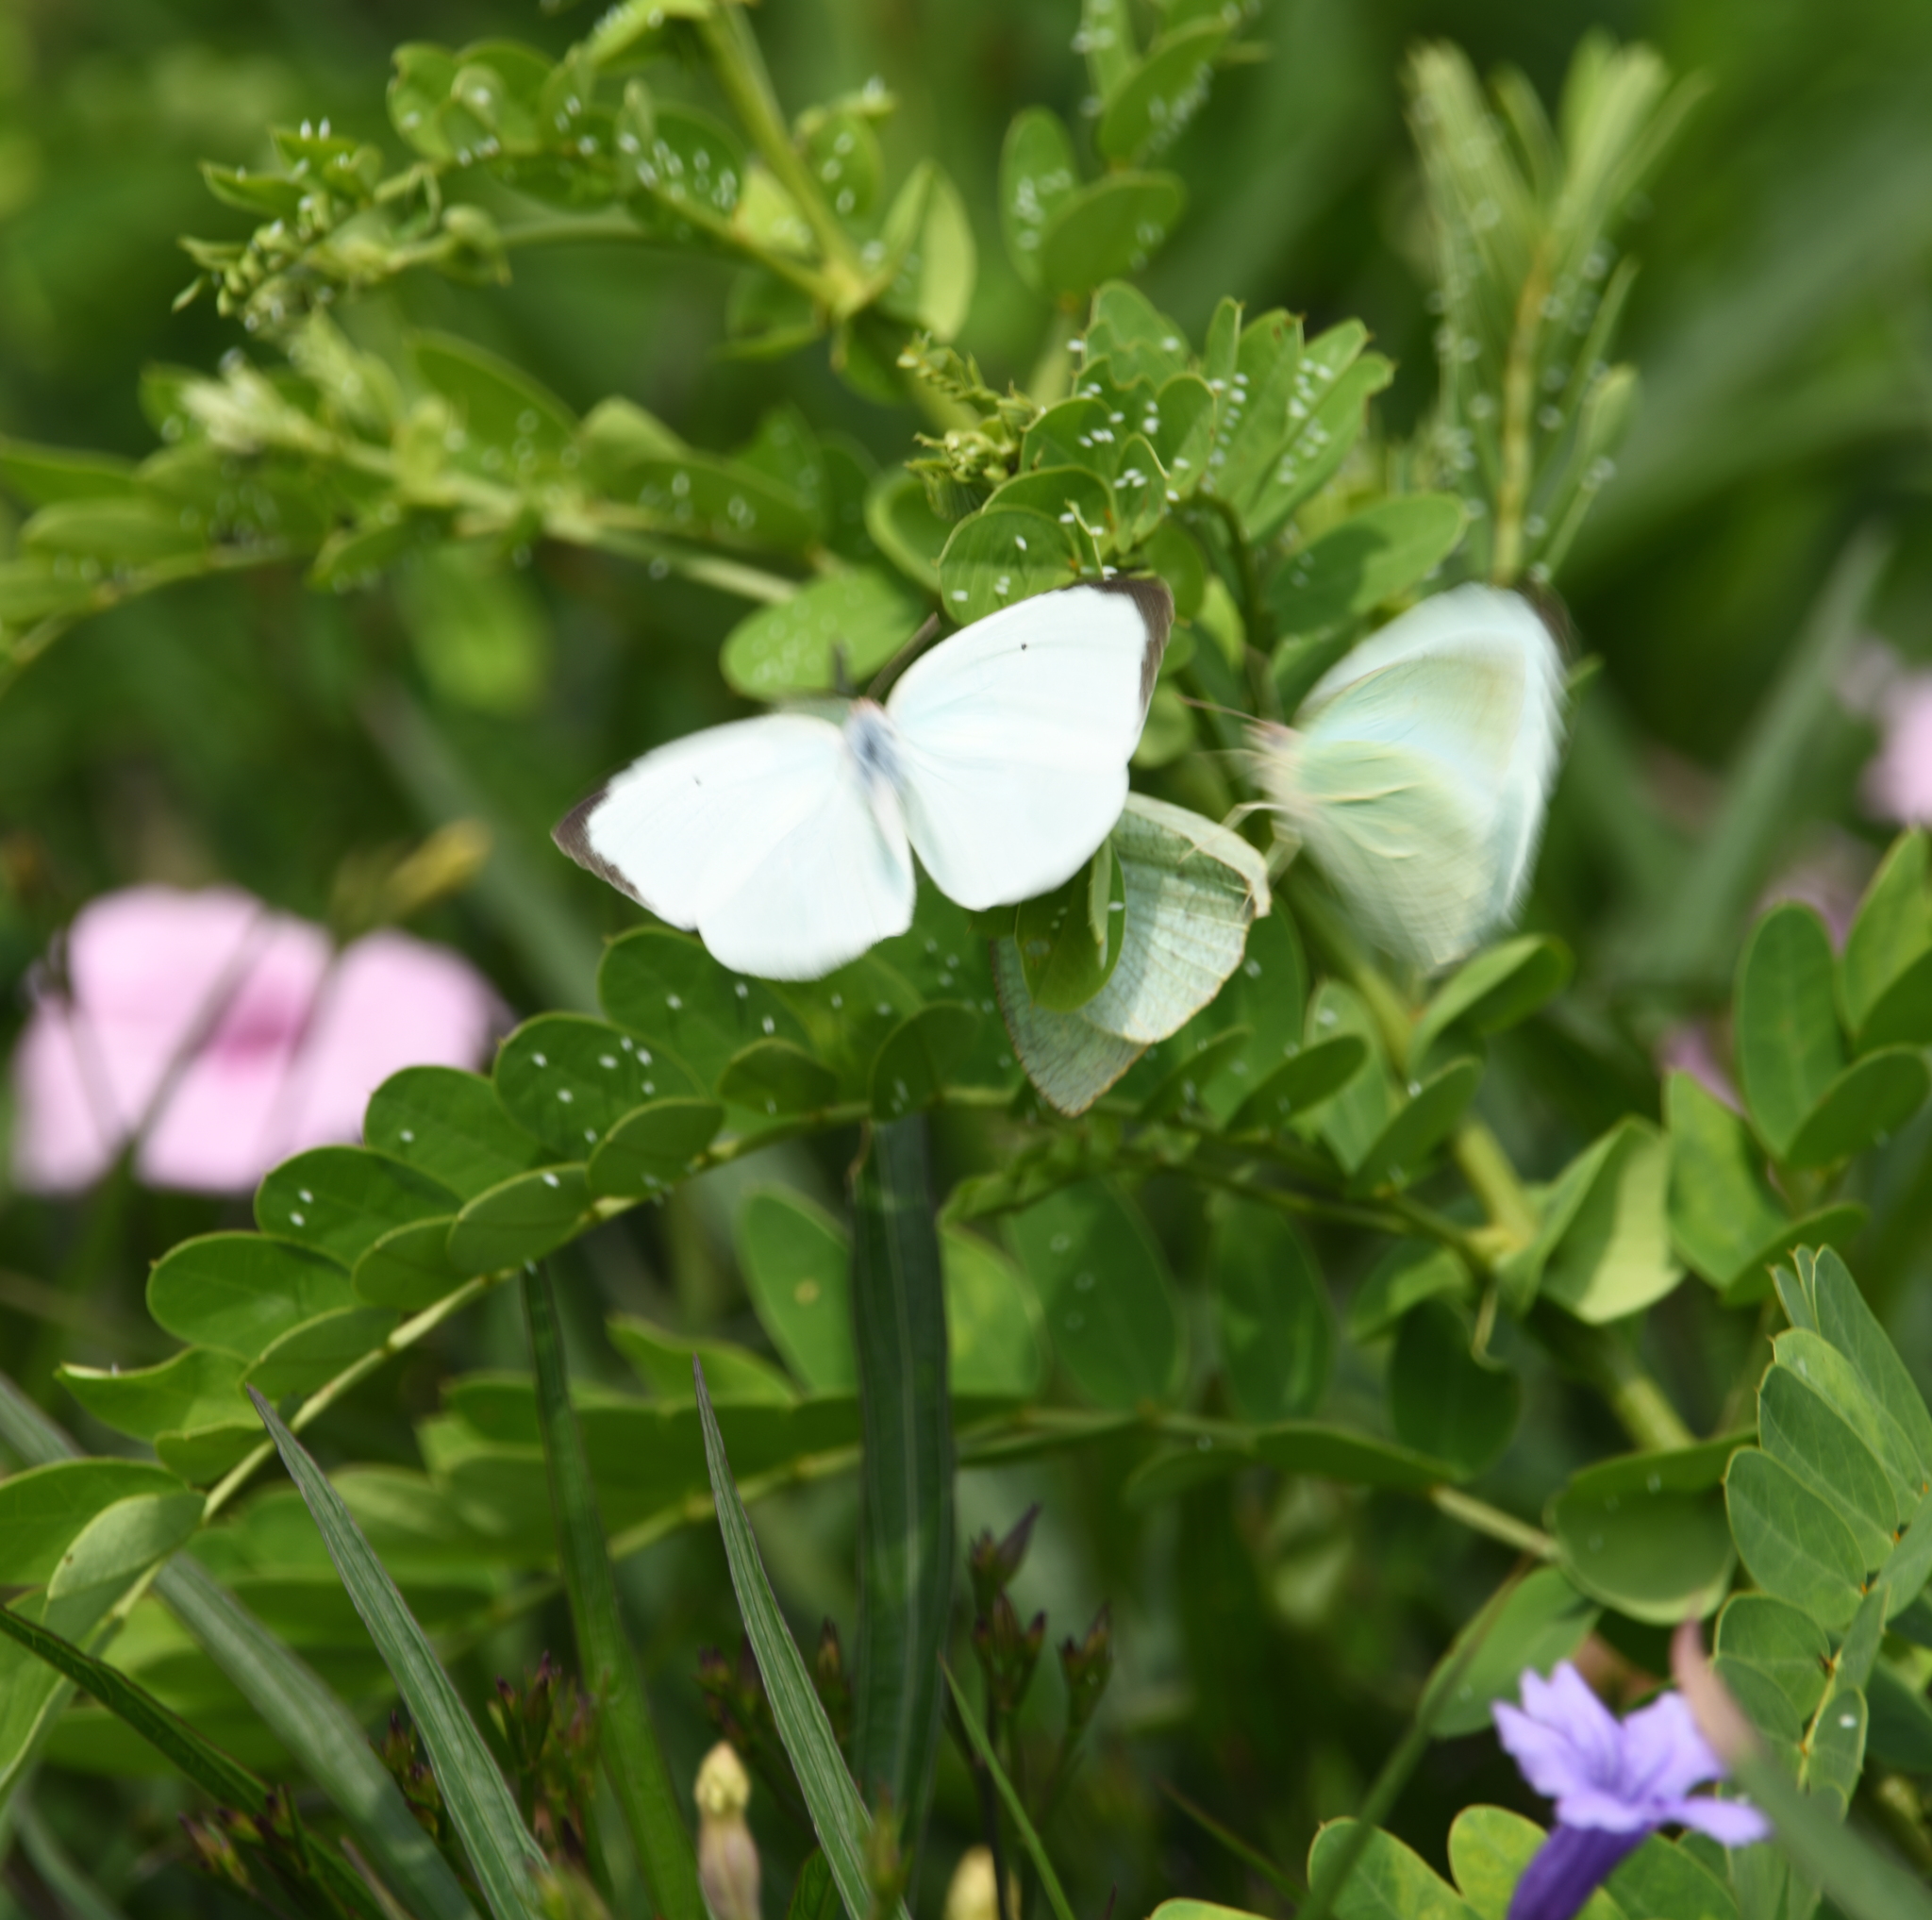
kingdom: Animalia
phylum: Arthropoda
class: Insecta
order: Lepidoptera
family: Pieridae
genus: Catopsilia
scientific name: Catopsilia pyranthe
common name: Mottled emigrant
